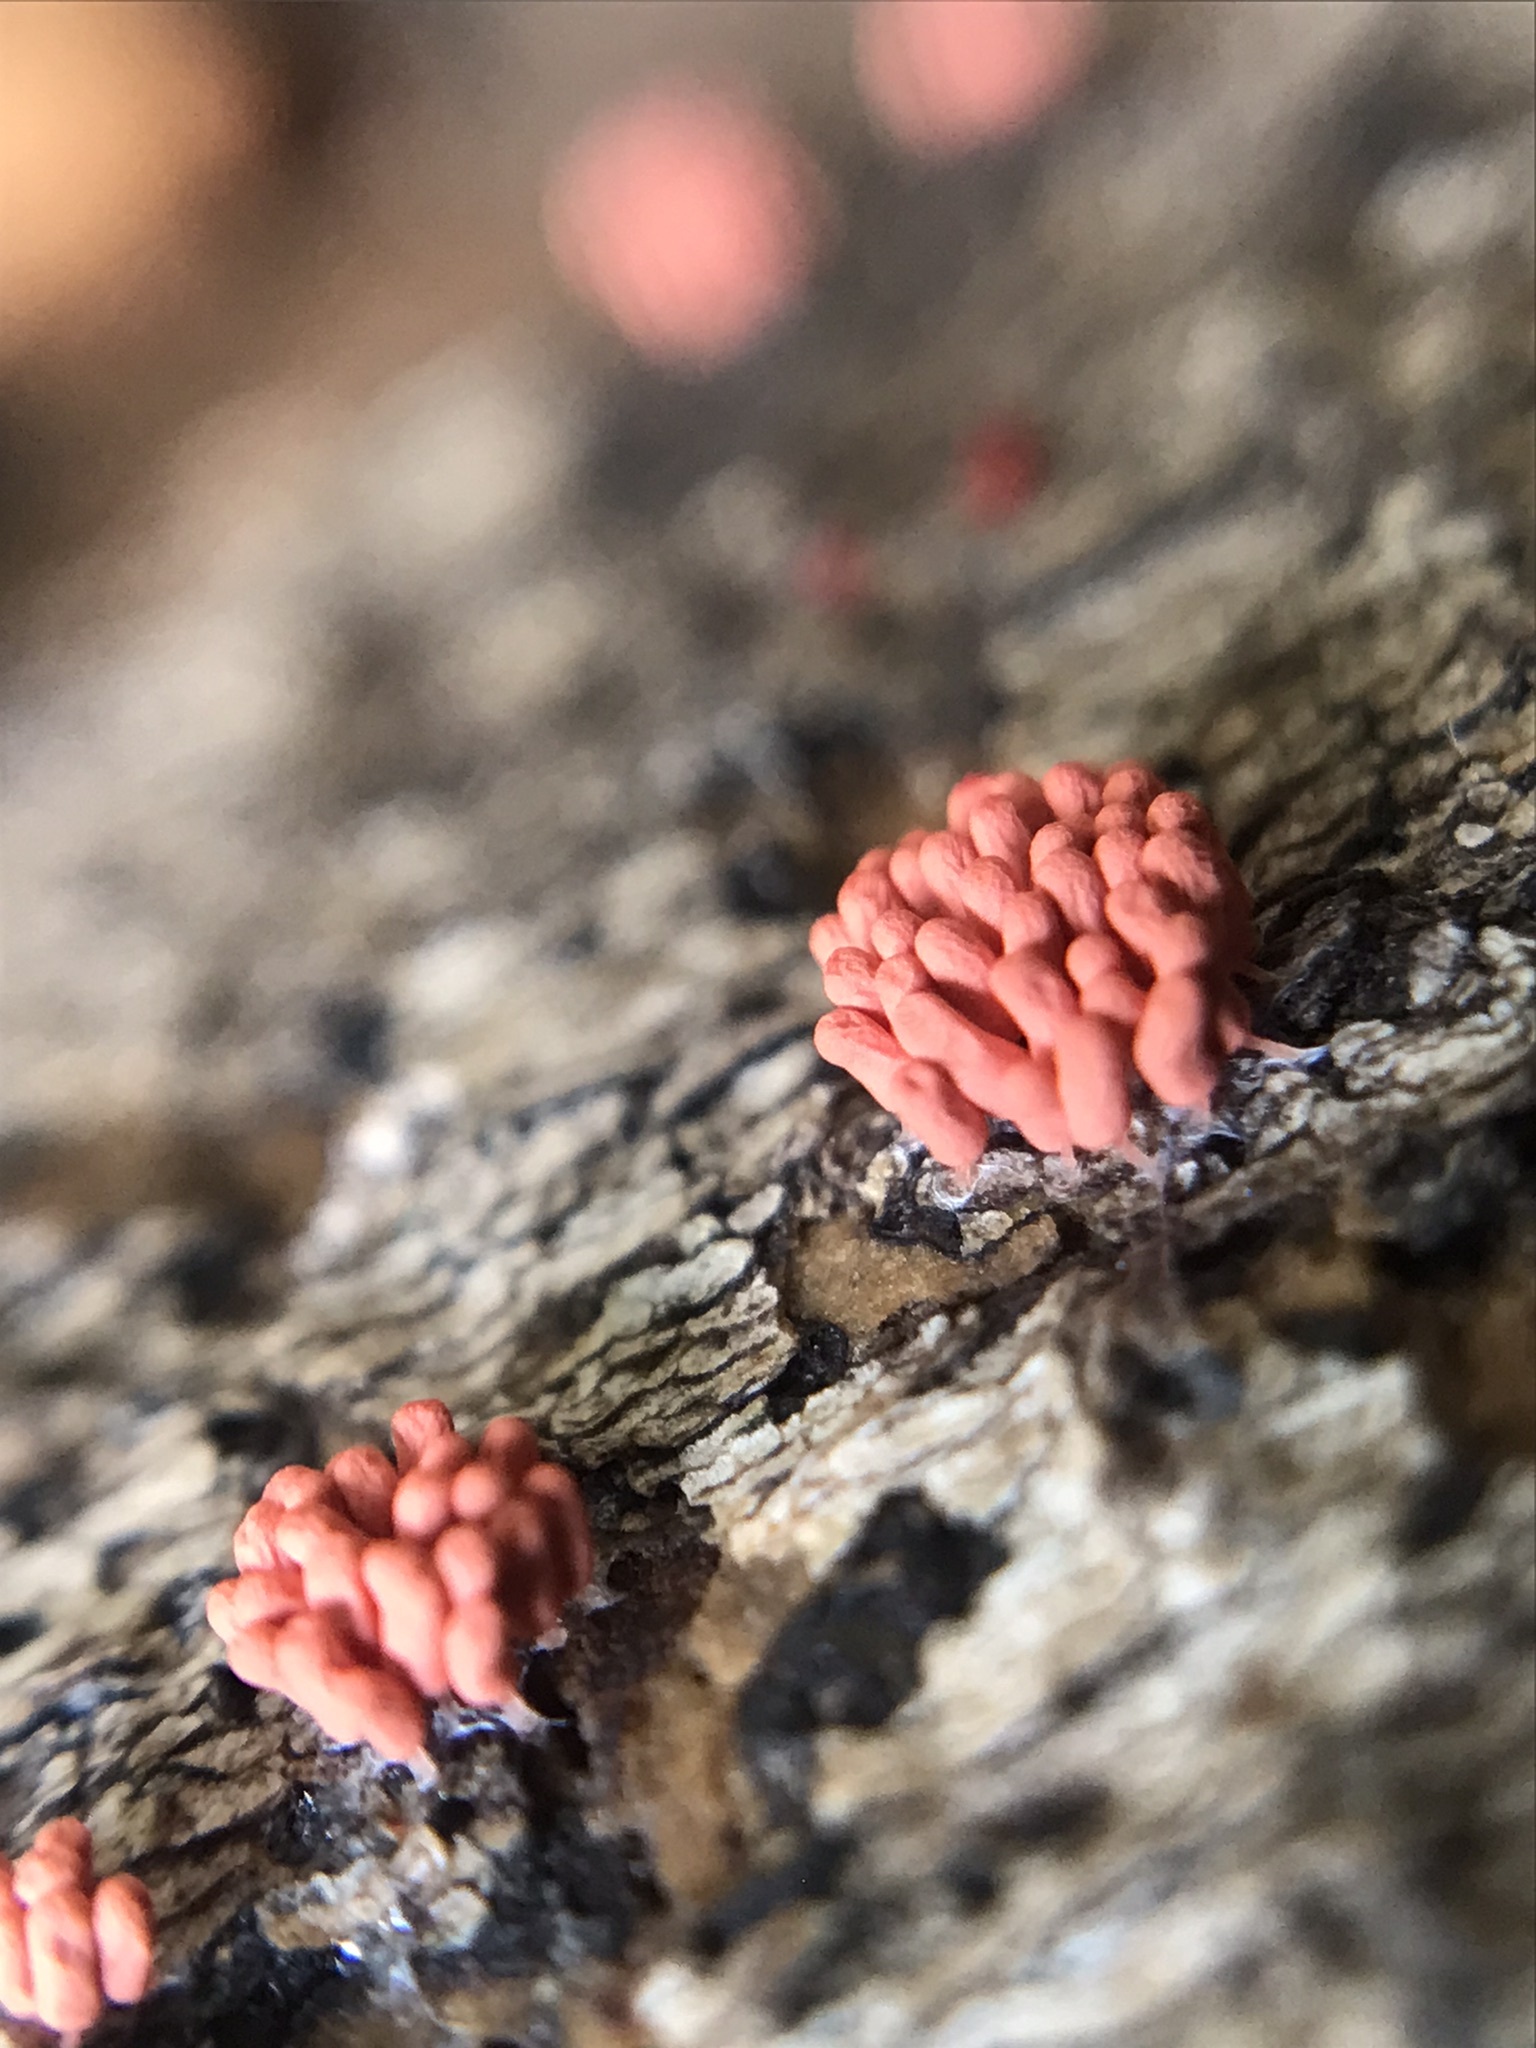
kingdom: Protozoa
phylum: Mycetozoa
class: Myxomycetes
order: Trichiales
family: Arcyriaceae
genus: Arcyria
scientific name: Arcyria denudata
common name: Carnival candy slime mold
